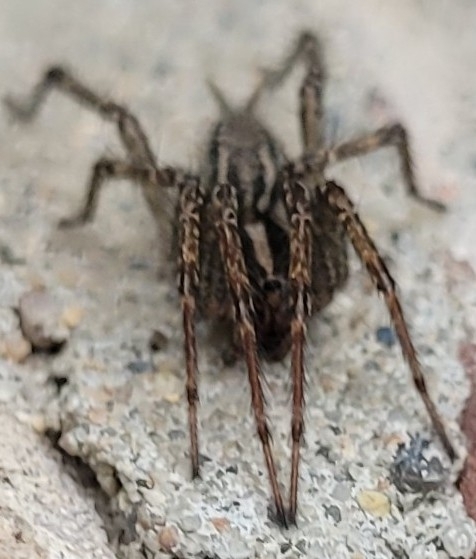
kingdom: Animalia
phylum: Arthropoda
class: Arachnida
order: Araneae
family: Agelenidae
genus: Agelenopsis
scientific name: Agelenopsis
